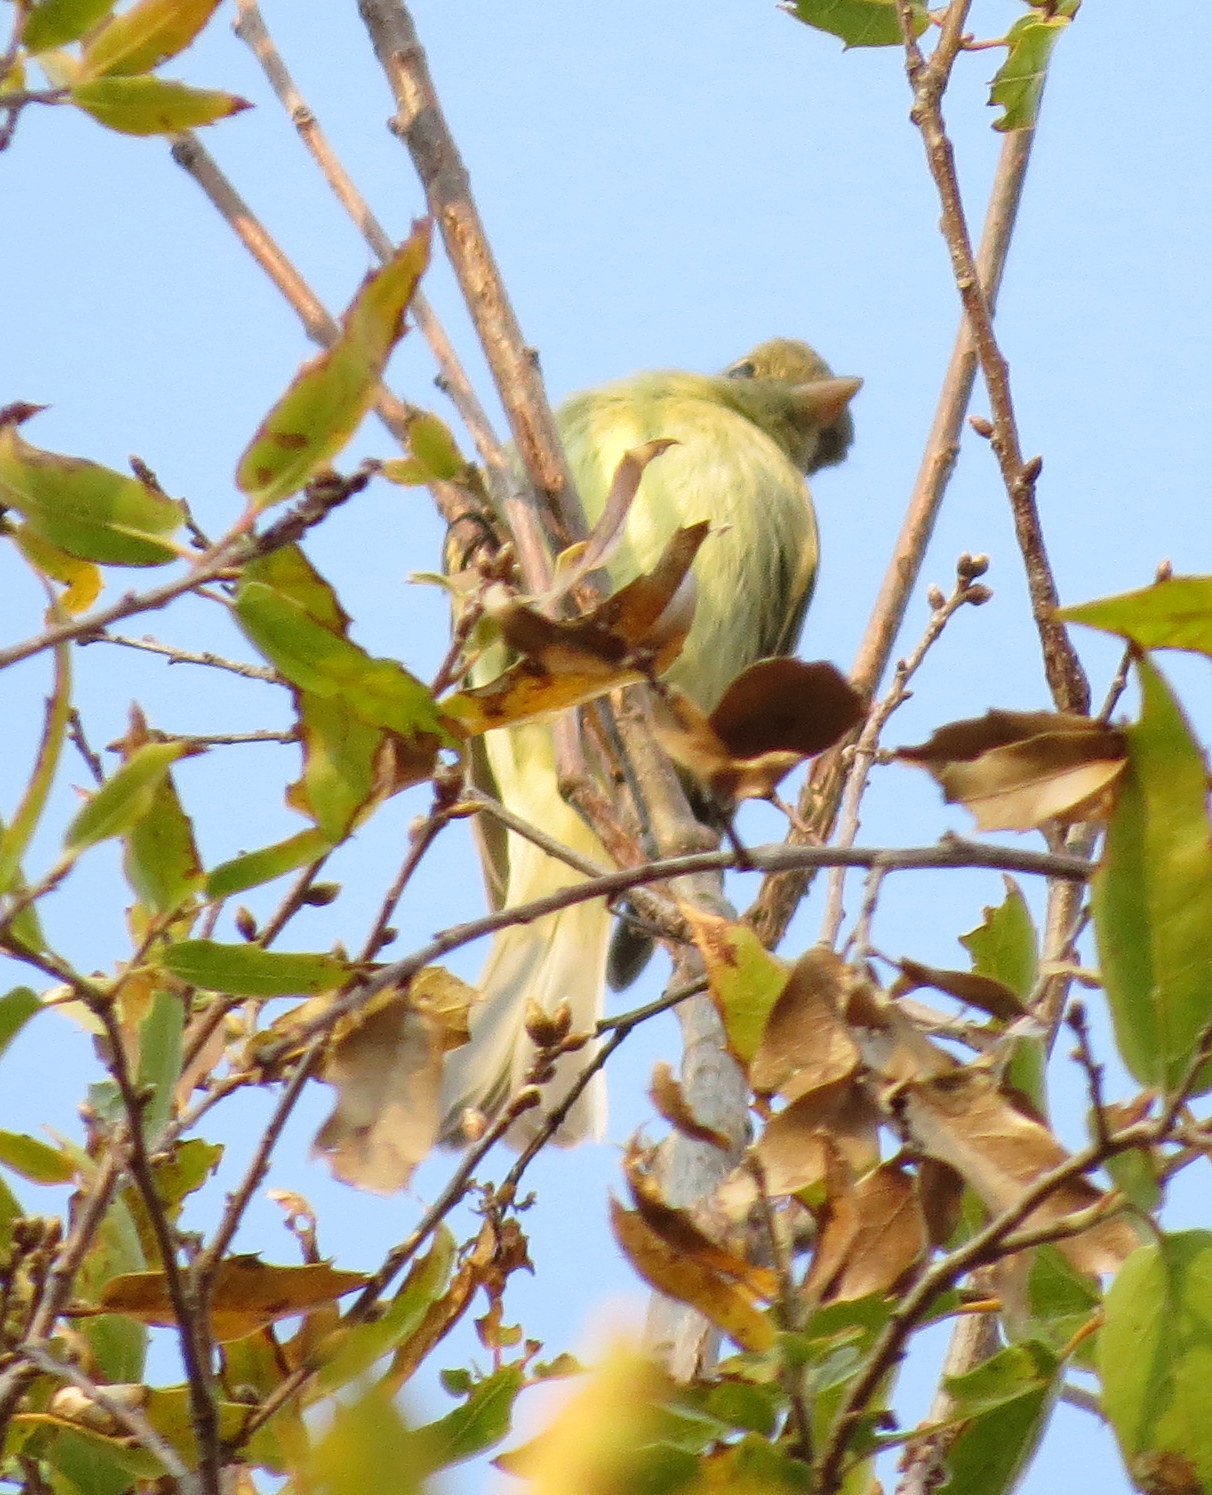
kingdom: Animalia
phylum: Chordata
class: Aves
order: Passeriformes
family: Tyrannidae
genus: Empidonax
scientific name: Empidonax difficilis
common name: Pacific-slope flycatcher
